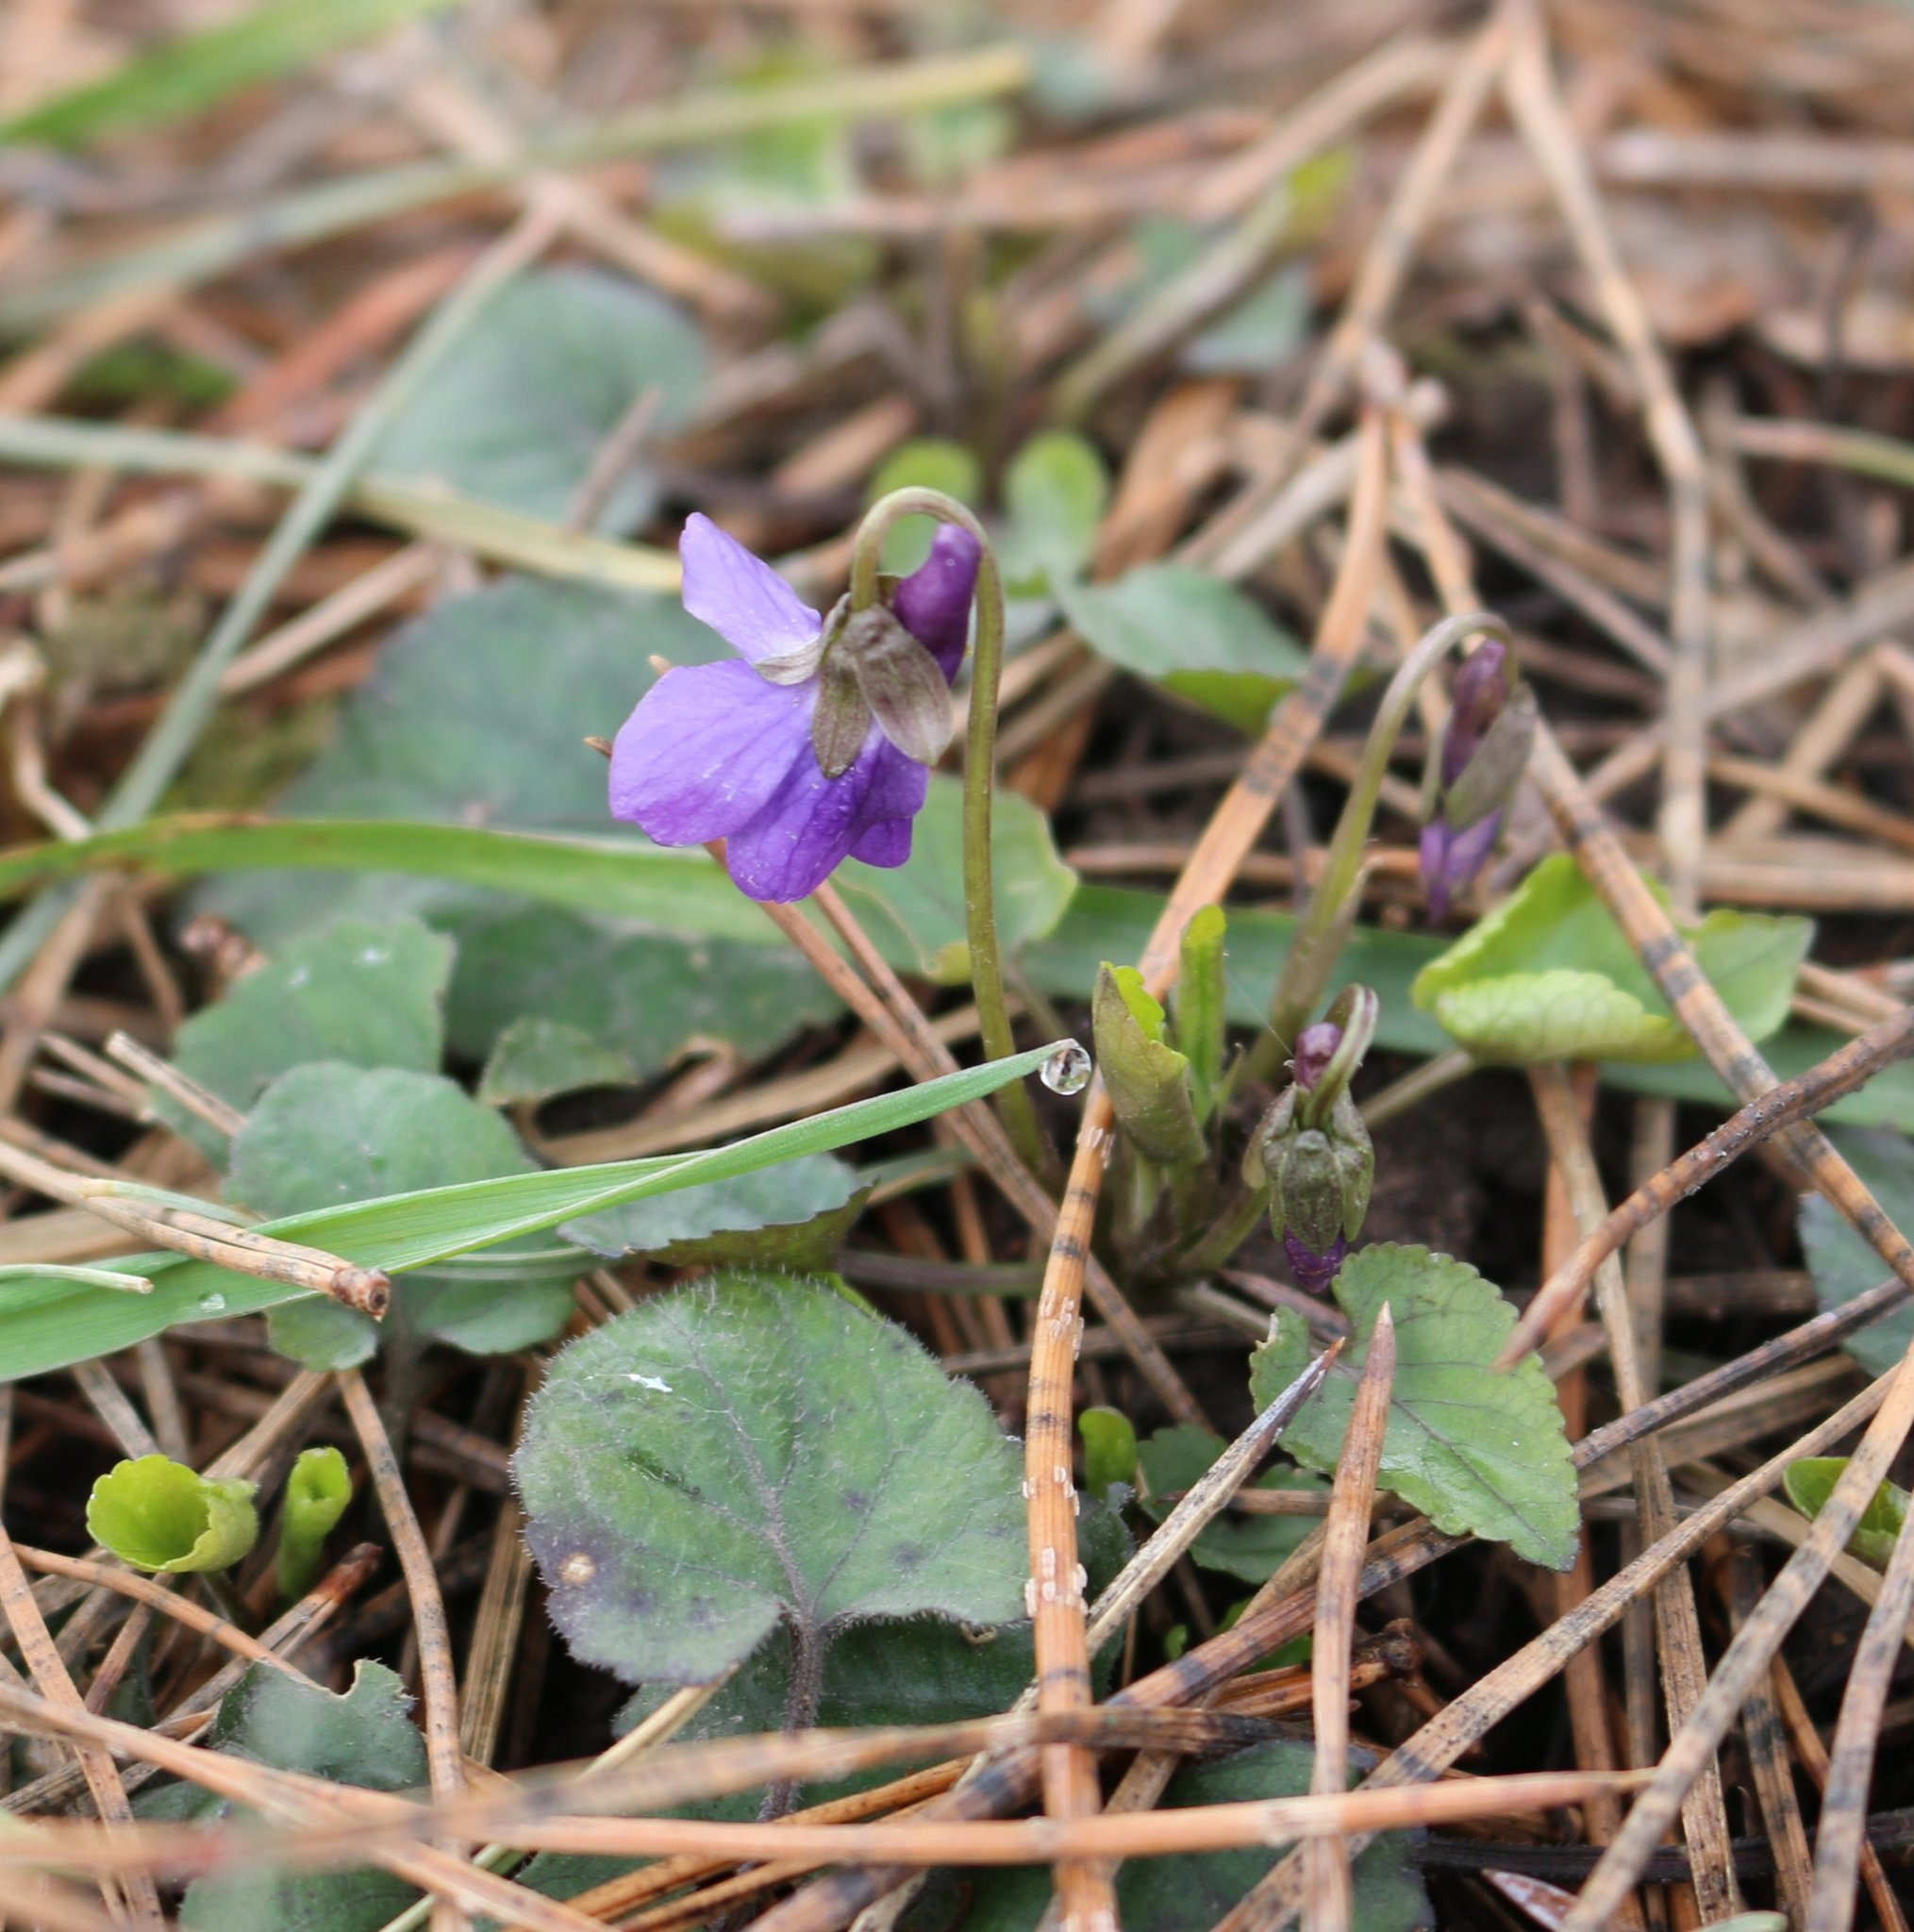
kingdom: Plantae
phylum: Tracheophyta
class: Magnoliopsida
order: Malpighiales
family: Violaceae
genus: Viola
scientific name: Viola odorata
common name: Sweet violet
